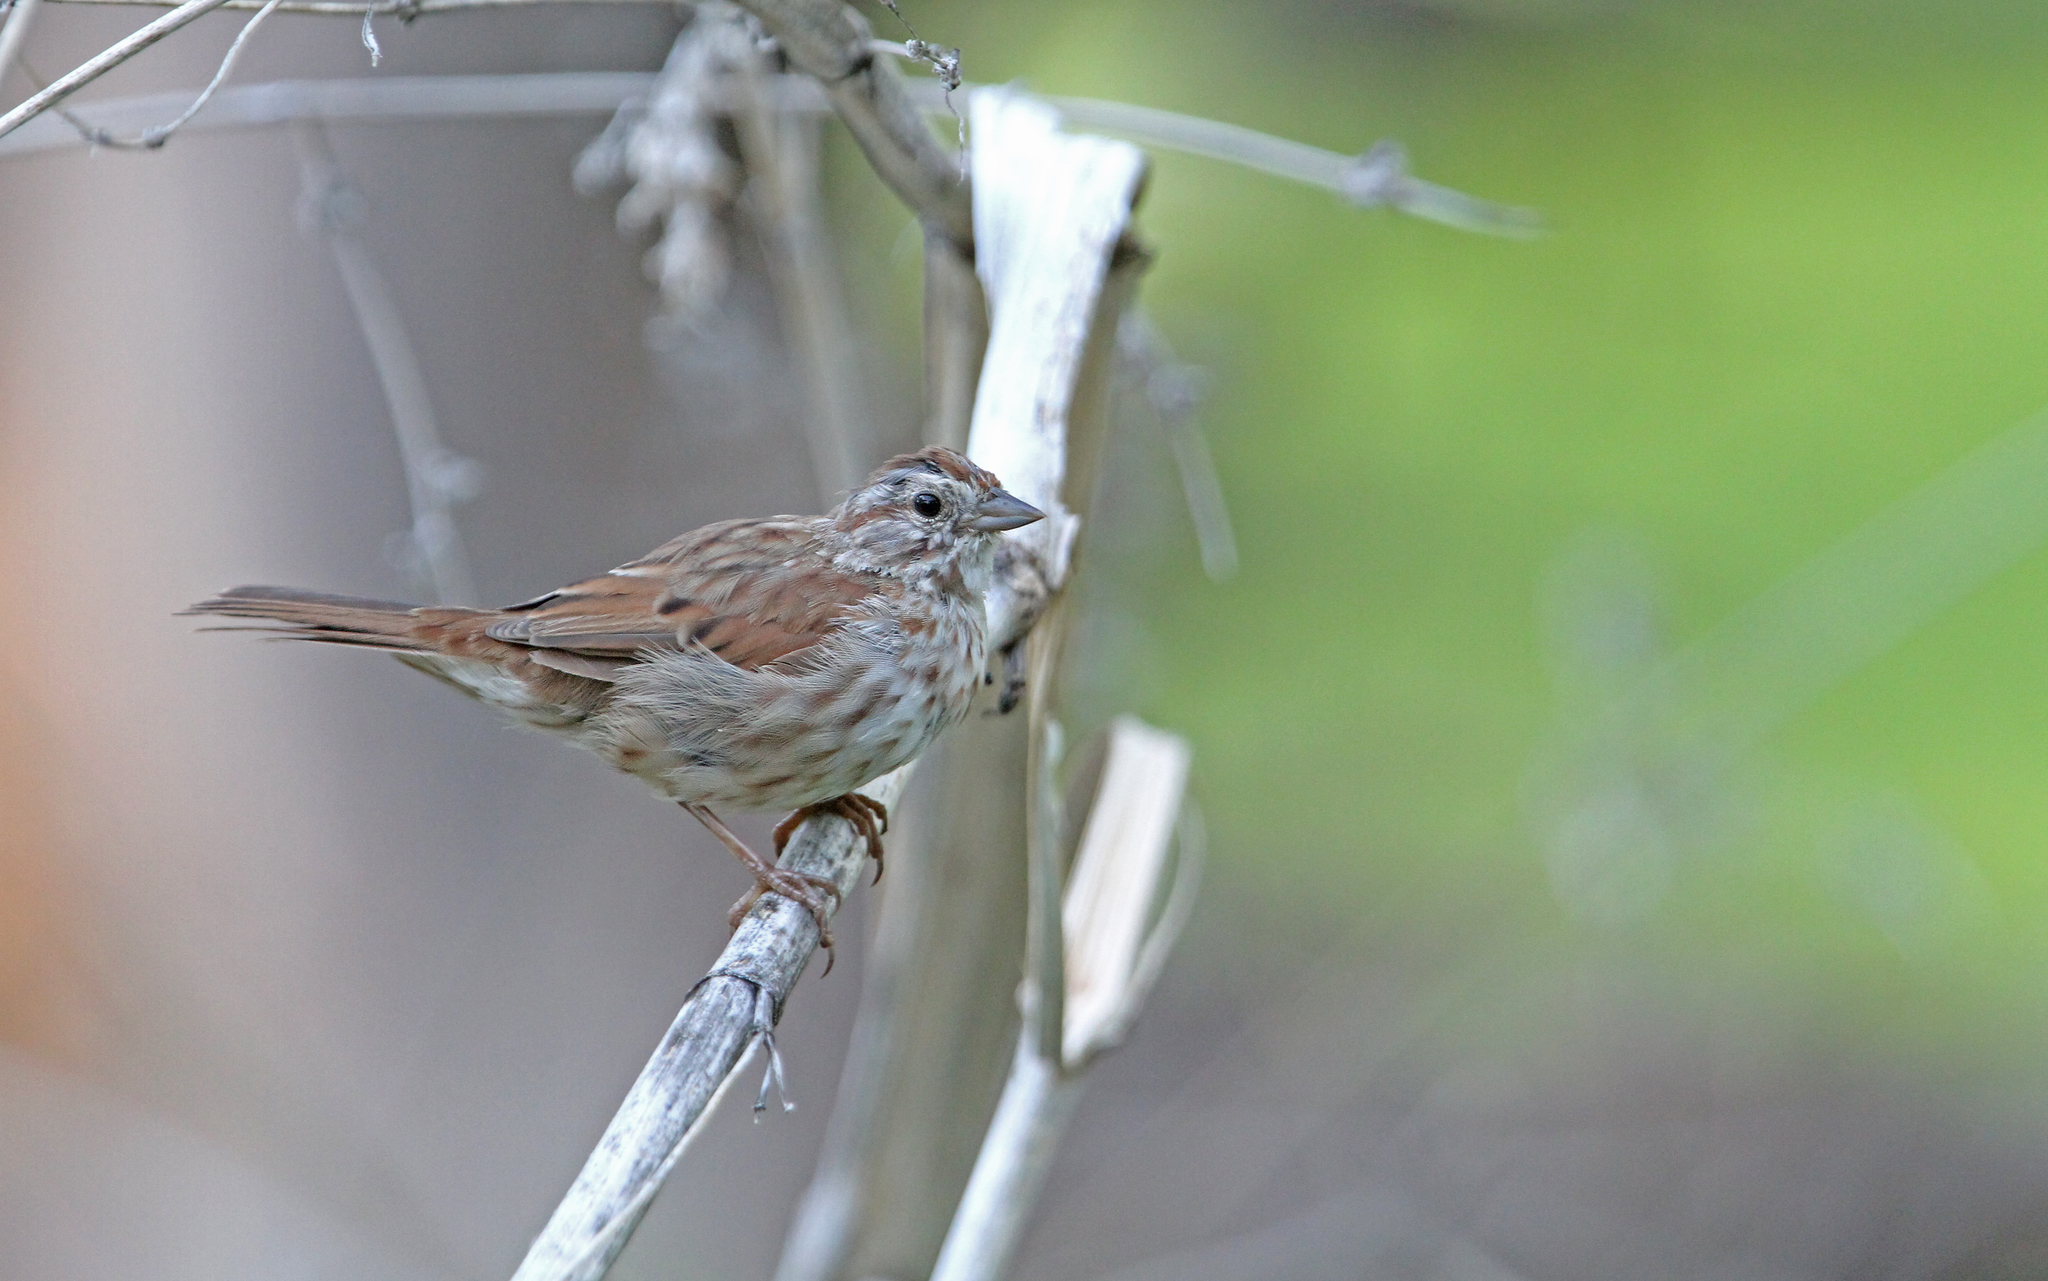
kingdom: Animalia
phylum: Chordata
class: Aves
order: Passeriformes
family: Passerellidae
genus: Melospiza
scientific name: Melospiza melodia
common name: Song sparrow
